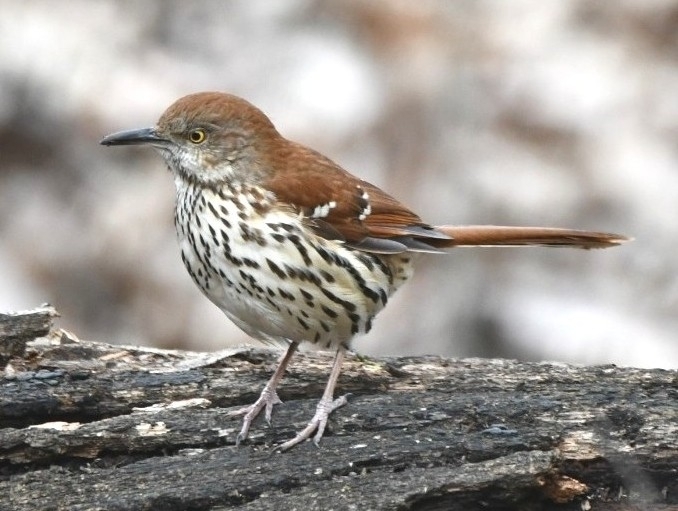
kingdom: Animalia
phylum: Chordata
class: Aves
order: Passeriformes
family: Mimidae
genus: Toxostoma
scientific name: Toxostoma rufum
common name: Brown thrasher
